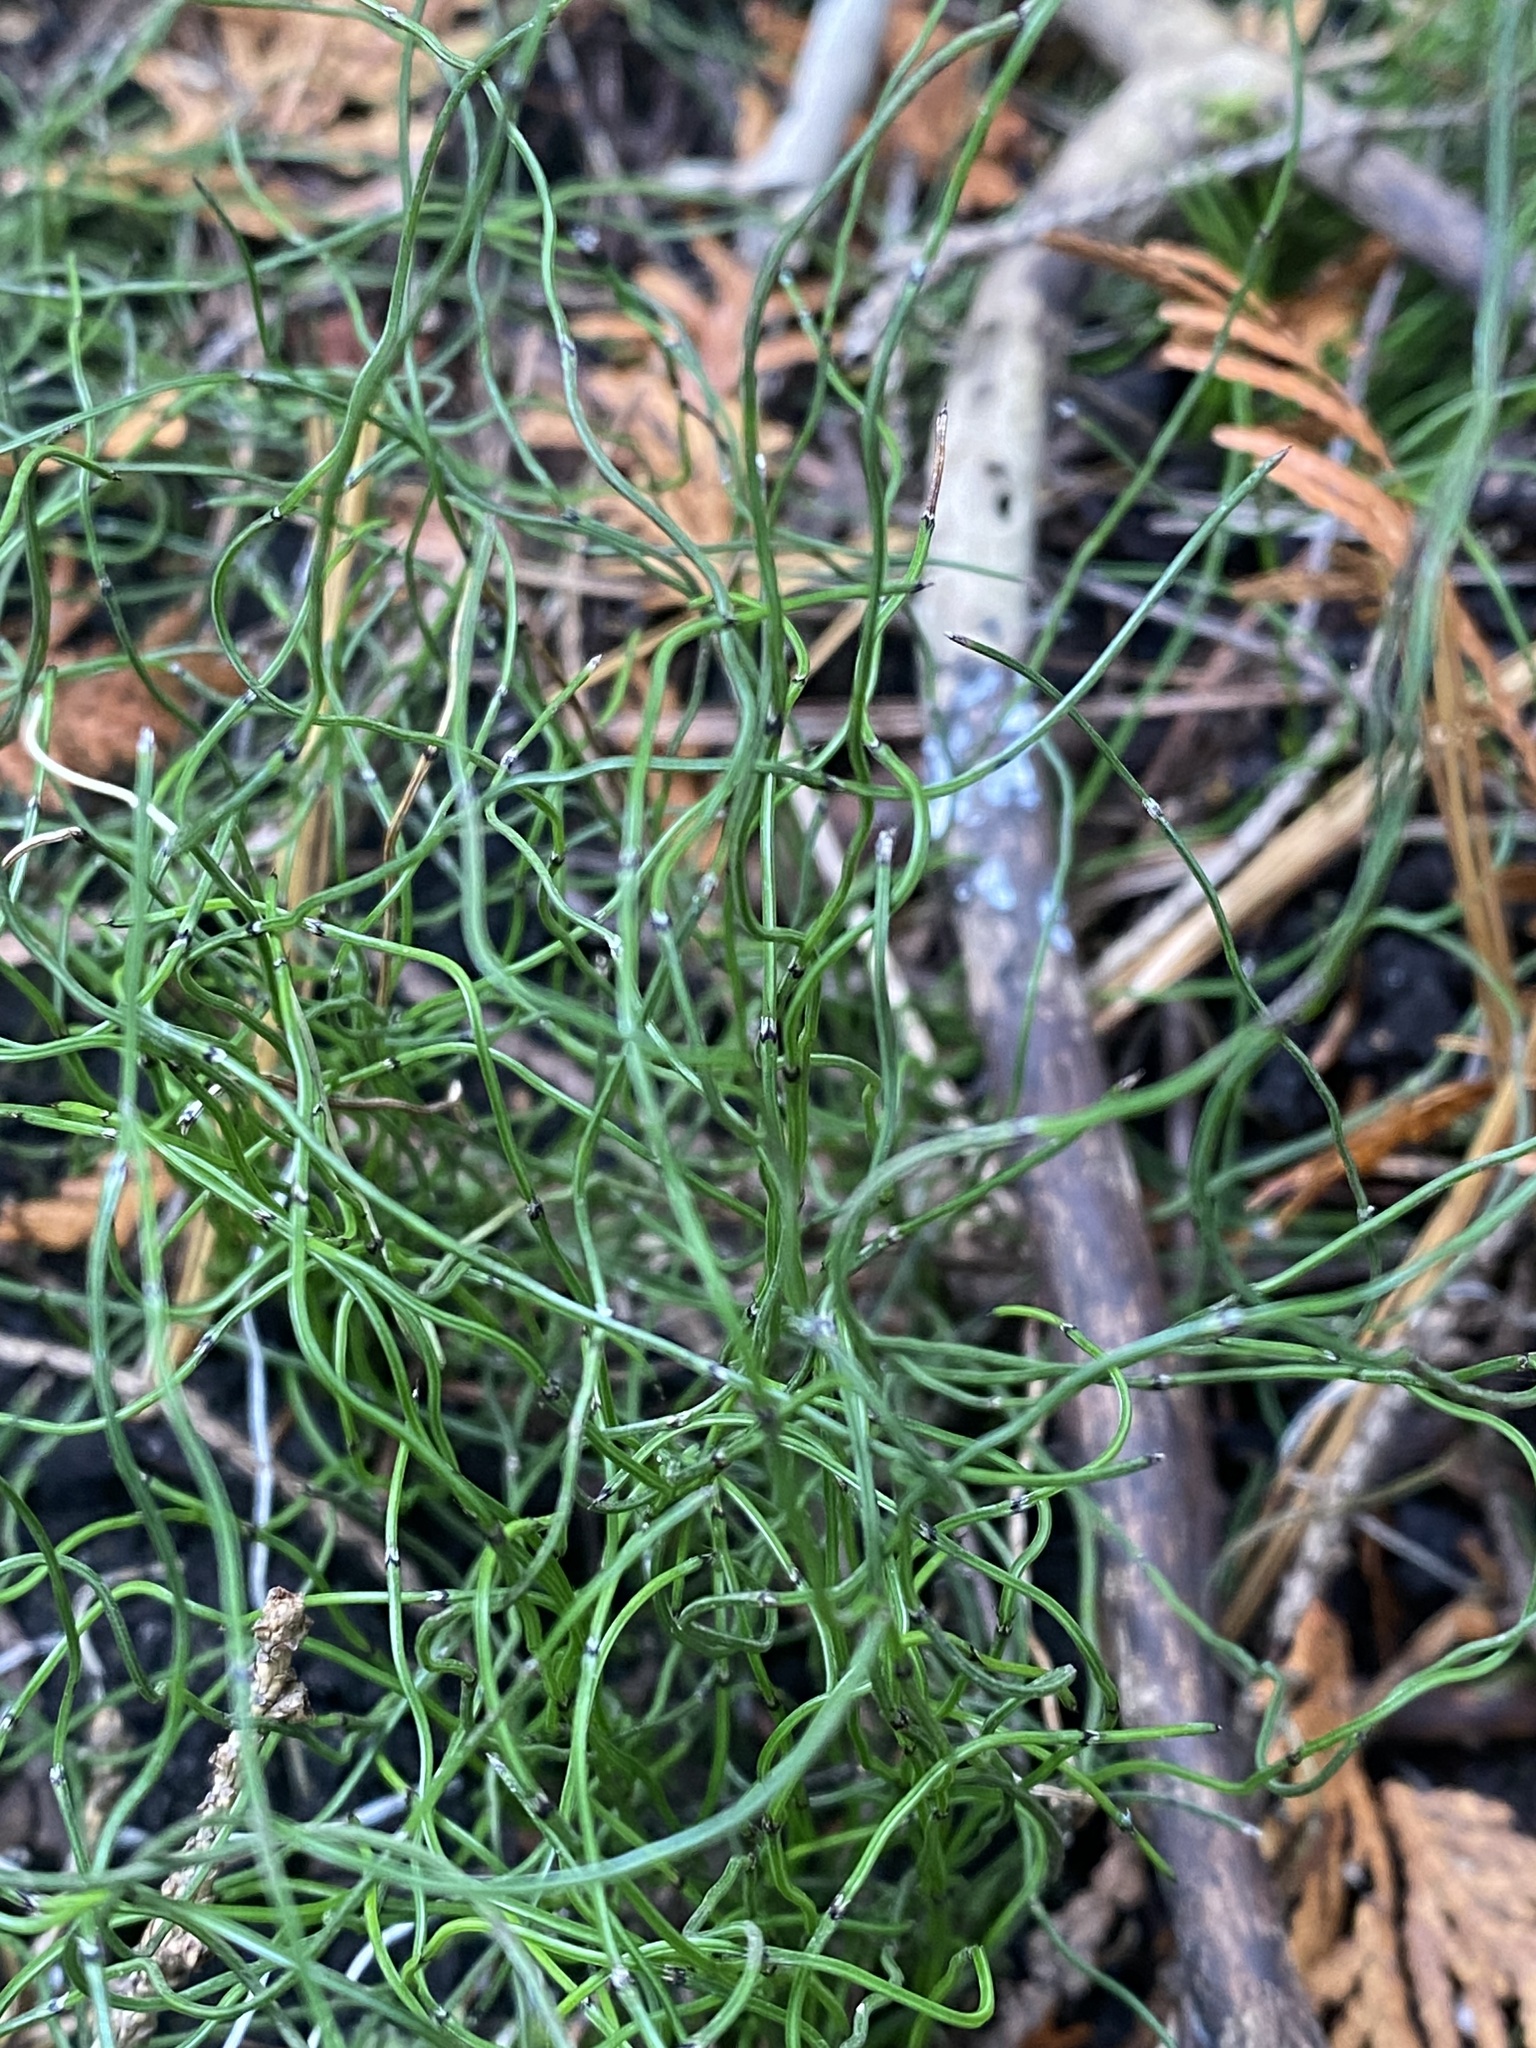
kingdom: Plantae
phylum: Tracheophyta
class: Polypodiopsida
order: Equisetales
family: Equisetaceae
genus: Equisetum
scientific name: Equisetum scirpoides
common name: Delicate horsetail
